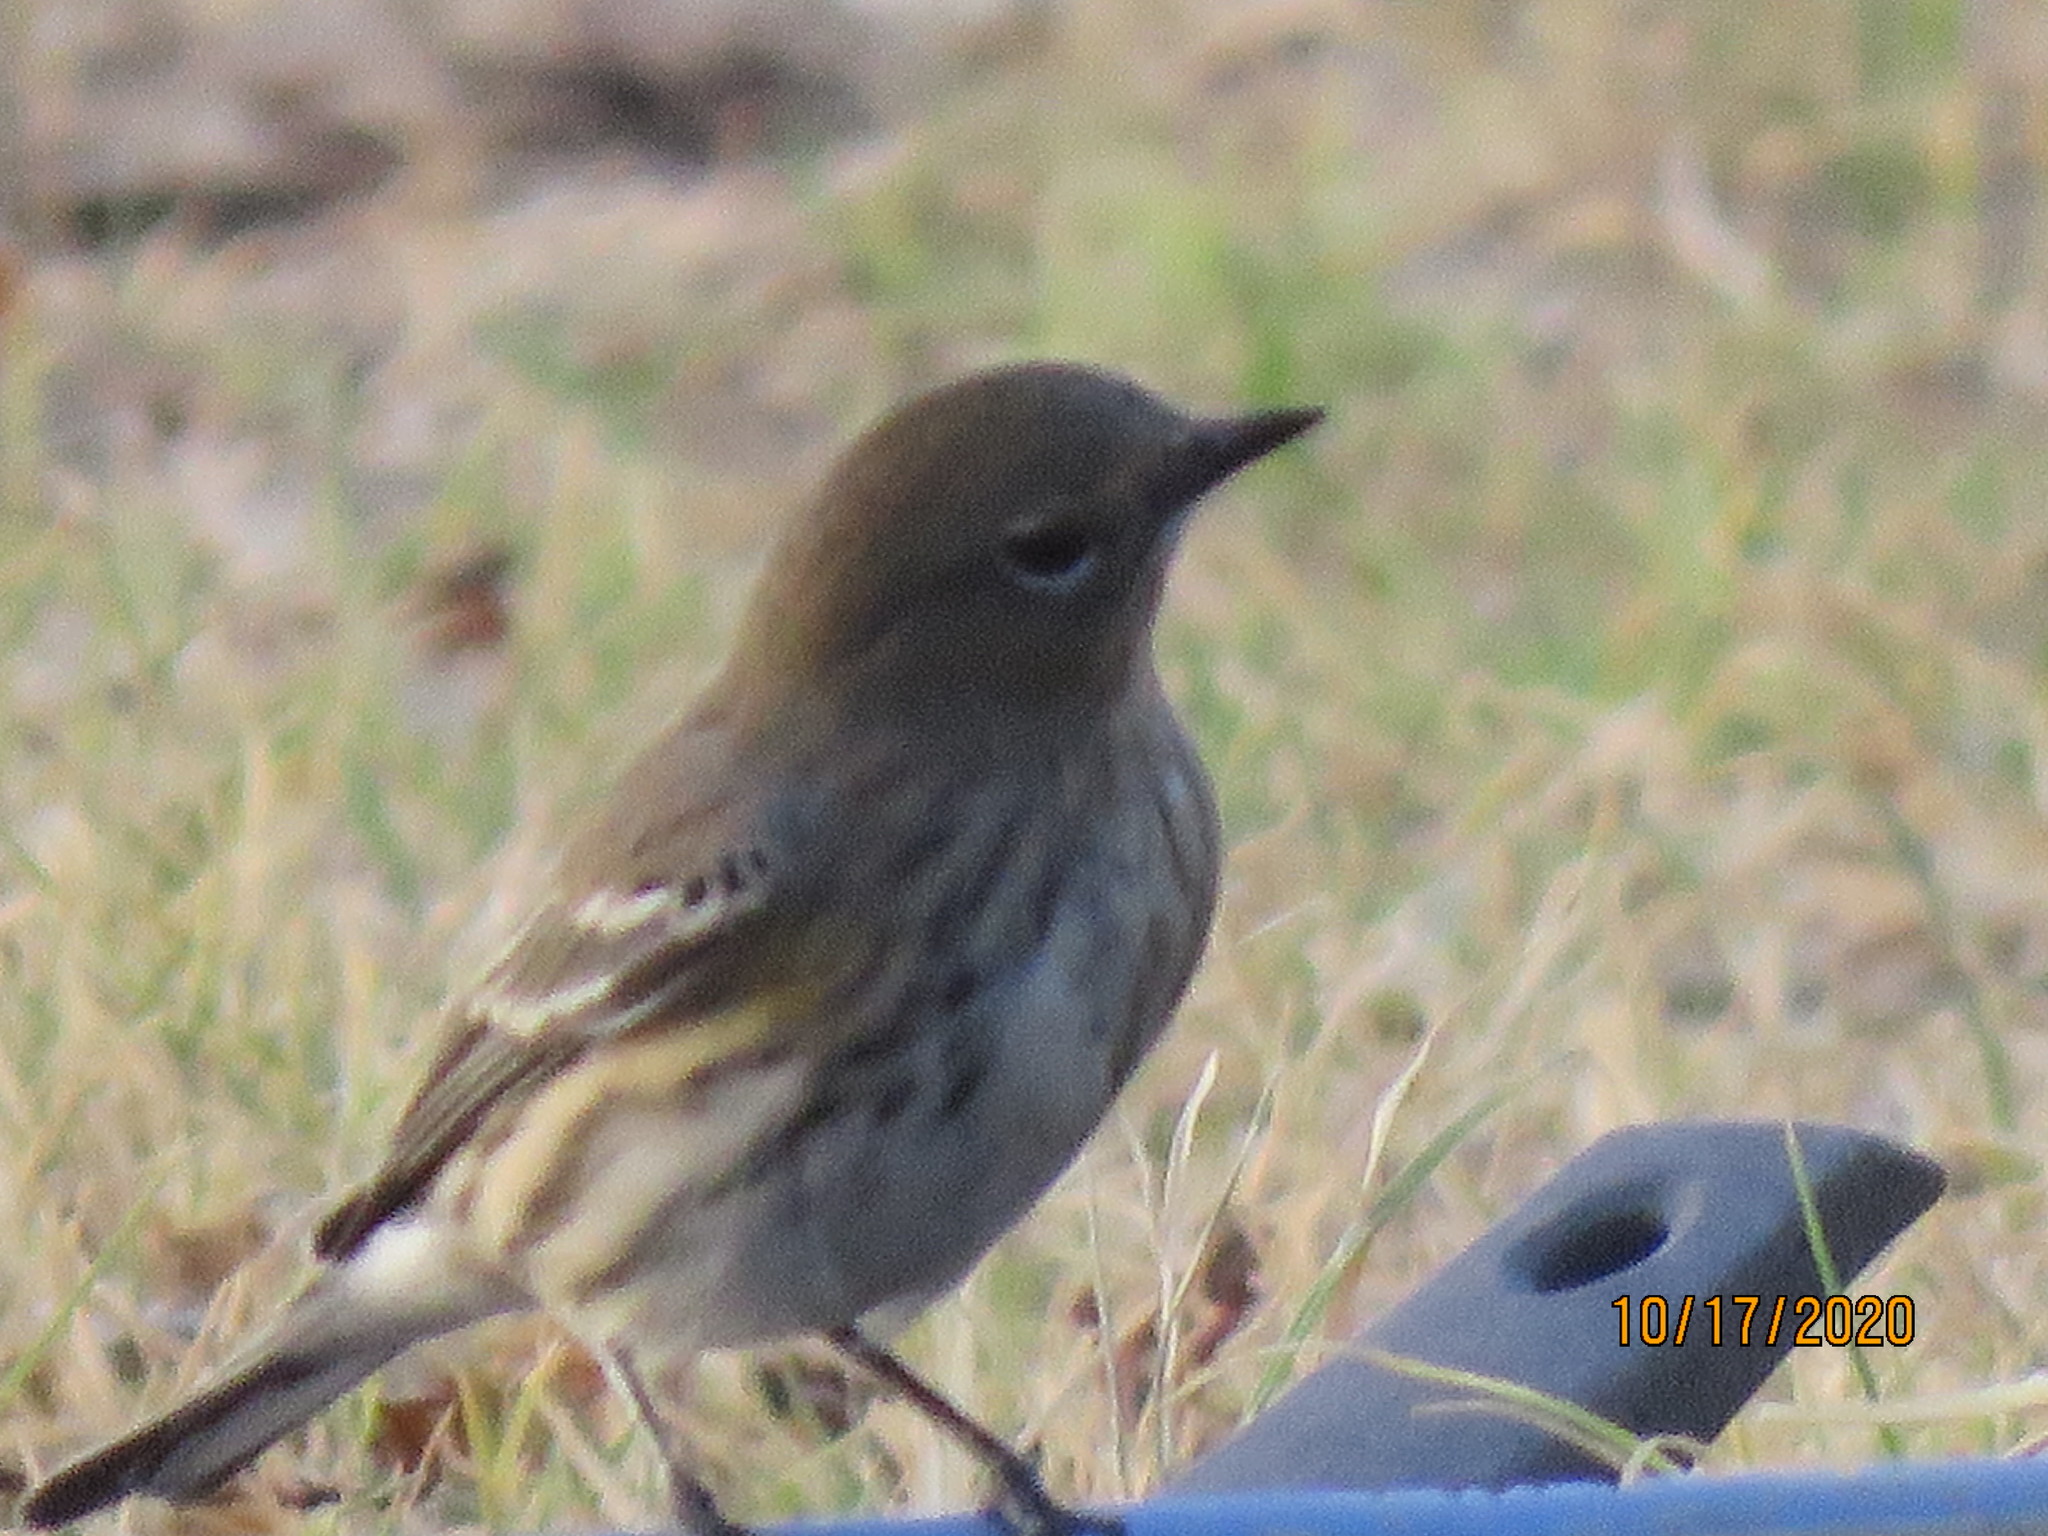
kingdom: Animalia
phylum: Chordata
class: Aves
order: Passeriformes
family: Parulidae
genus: Setophaga
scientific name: Setophaga coronata
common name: Myrtle warbler
